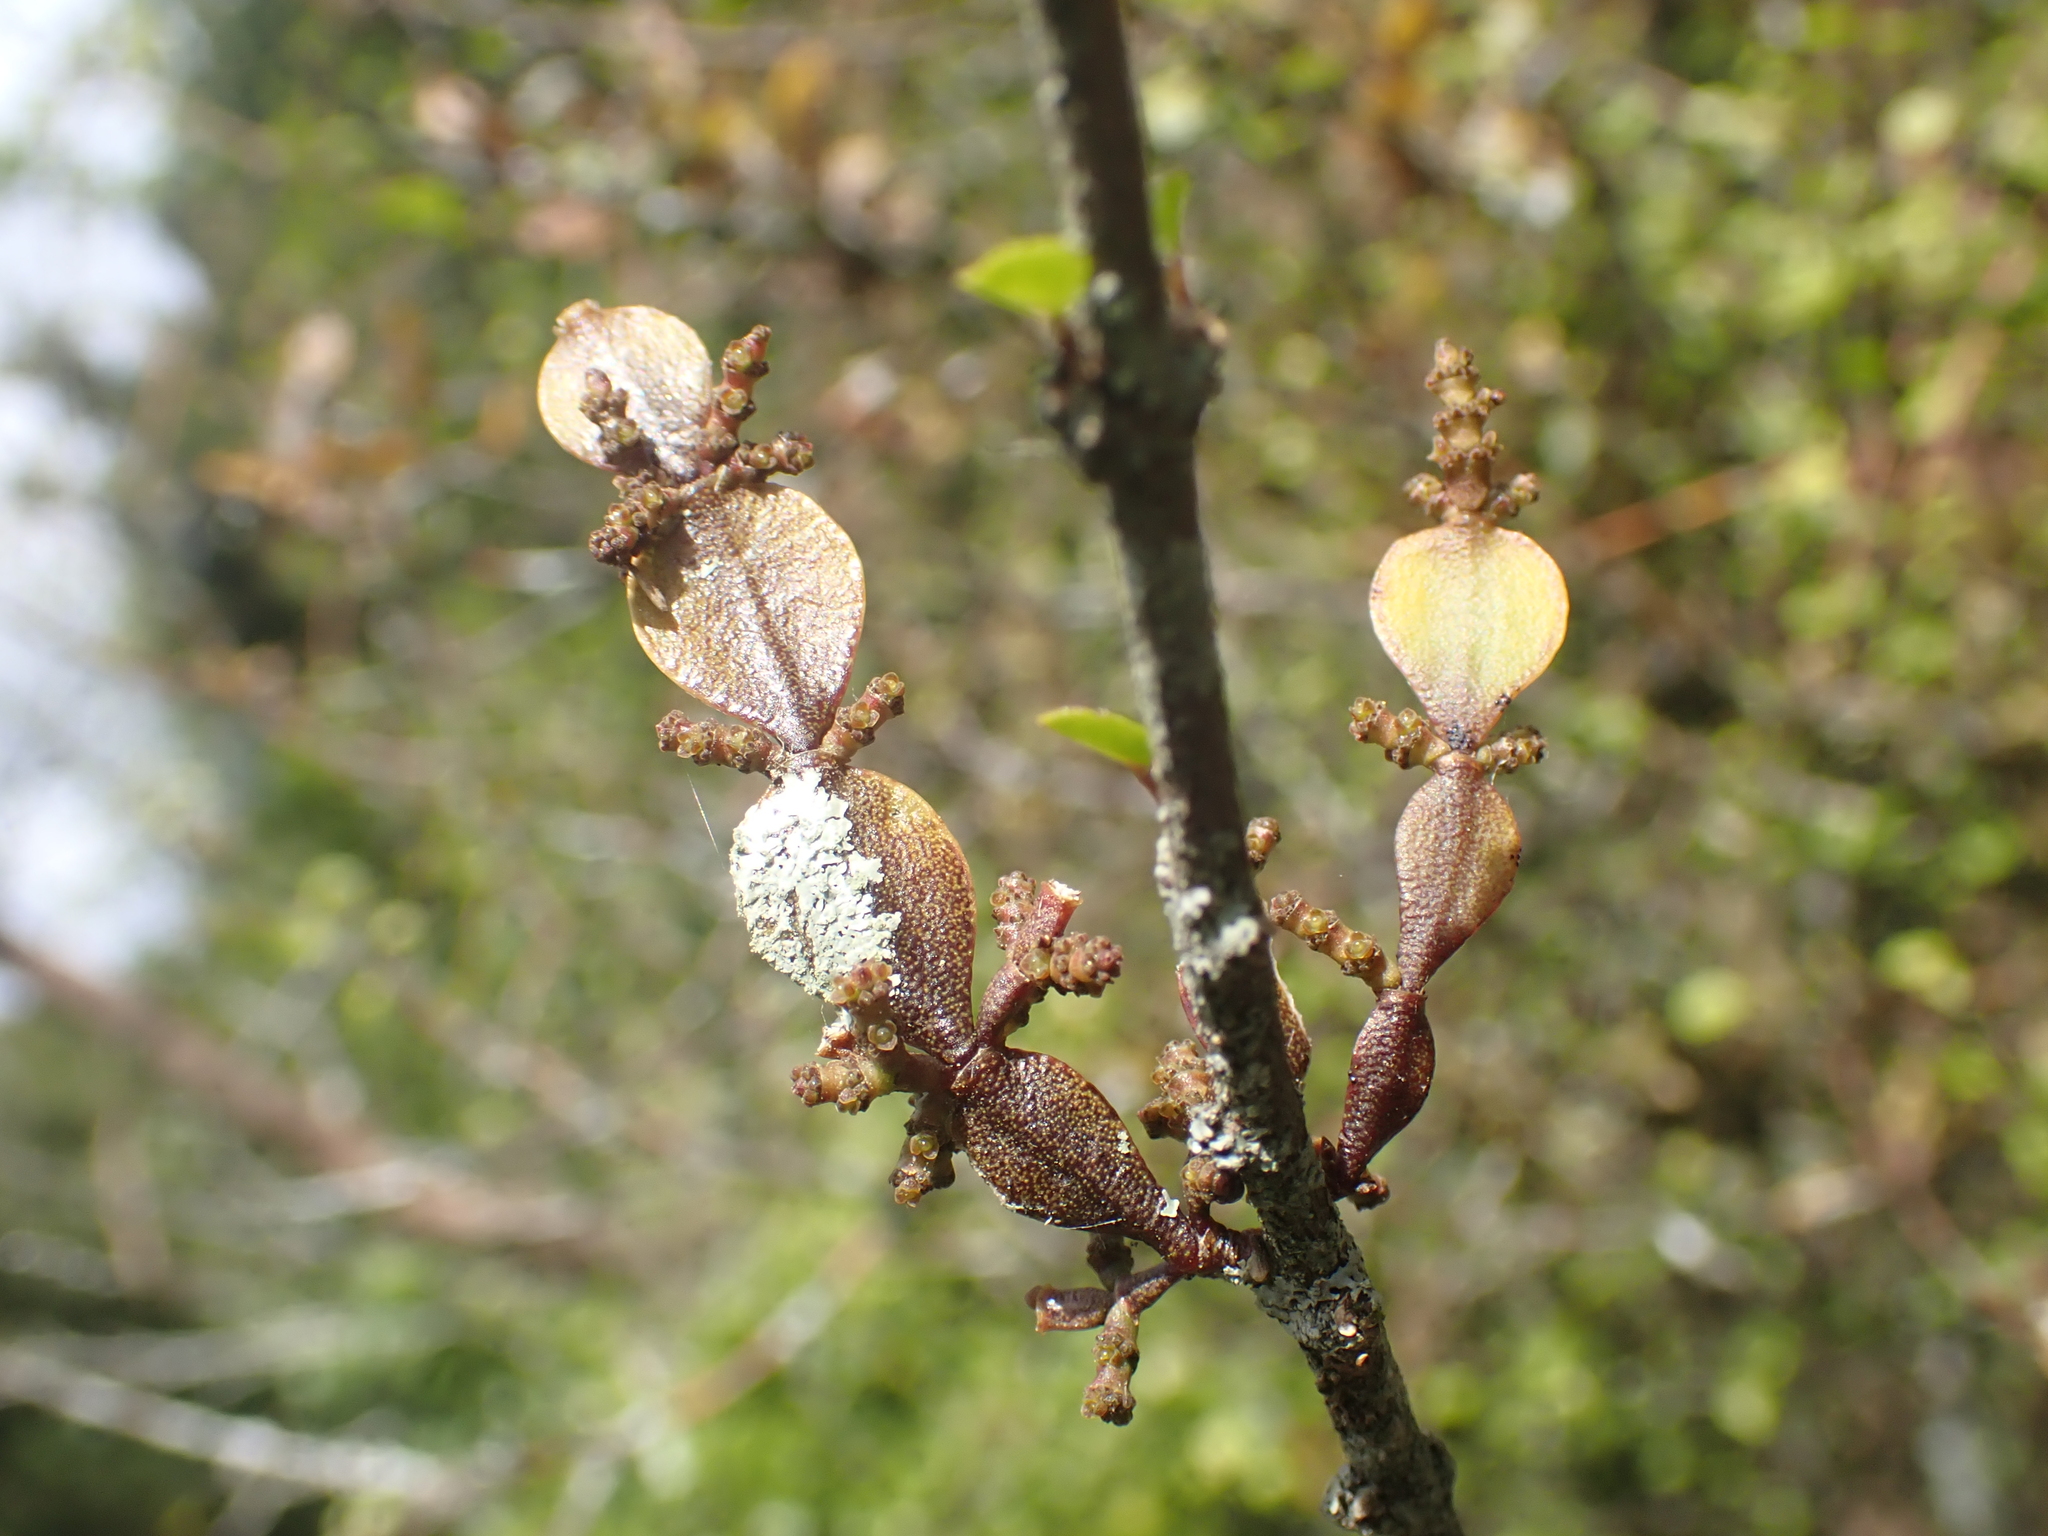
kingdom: Plantae
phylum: Tracheophyta
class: Magnoliopsida
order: Santalales
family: Viscaceae
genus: Korthalsella
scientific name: Korthalsella lindsayi
